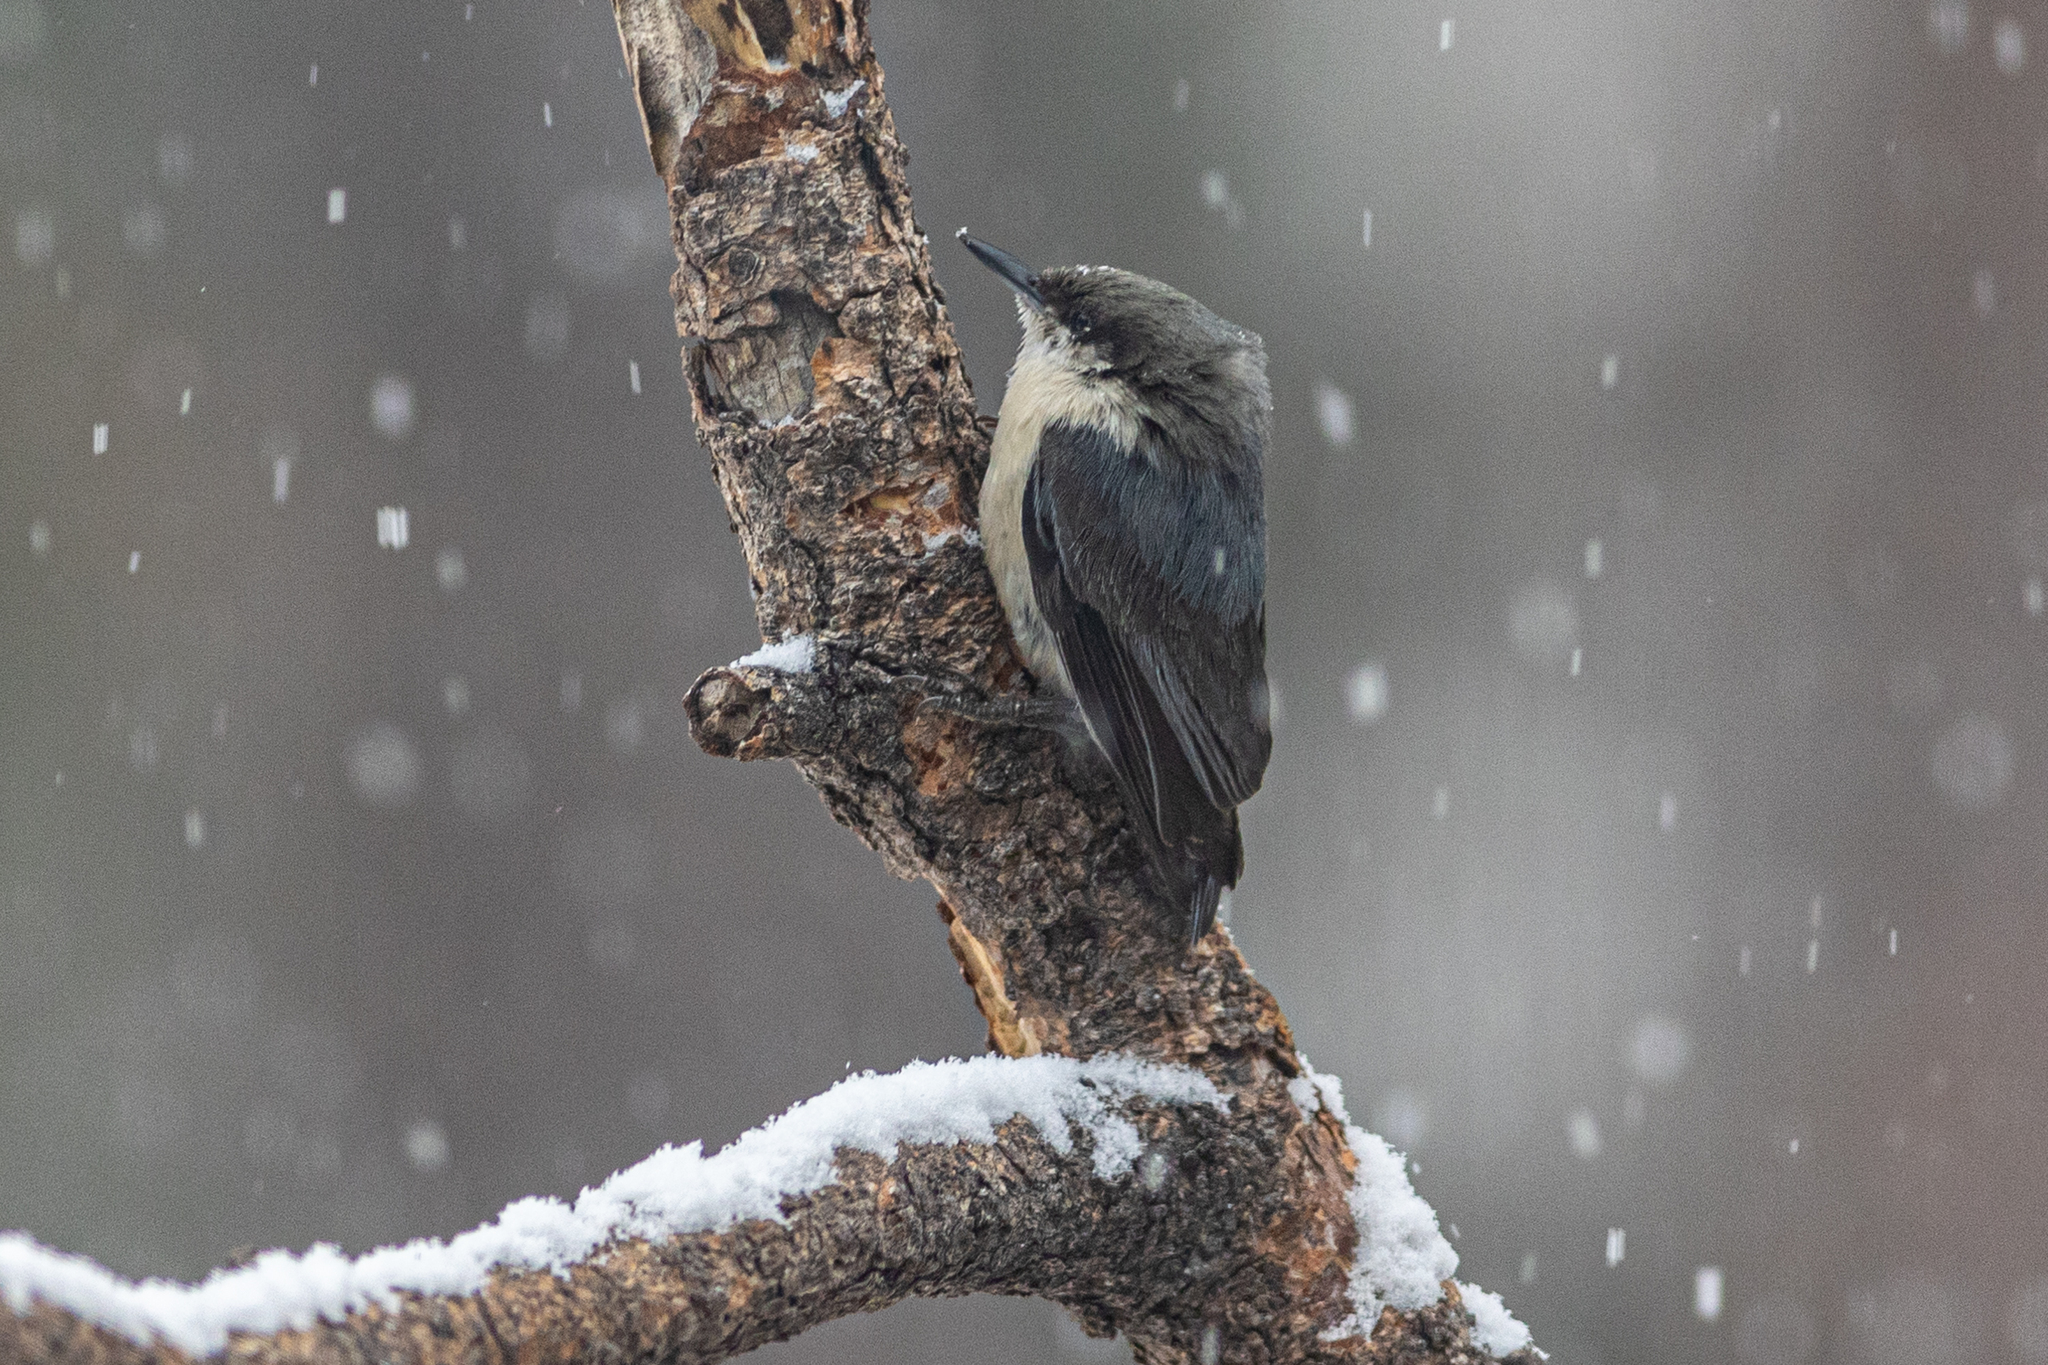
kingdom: Animalia
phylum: Chordata
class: Aves
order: Passeriformes
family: Sittidae
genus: Sitta
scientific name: Sitta pygmaea
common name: Pygmy nuthatch
